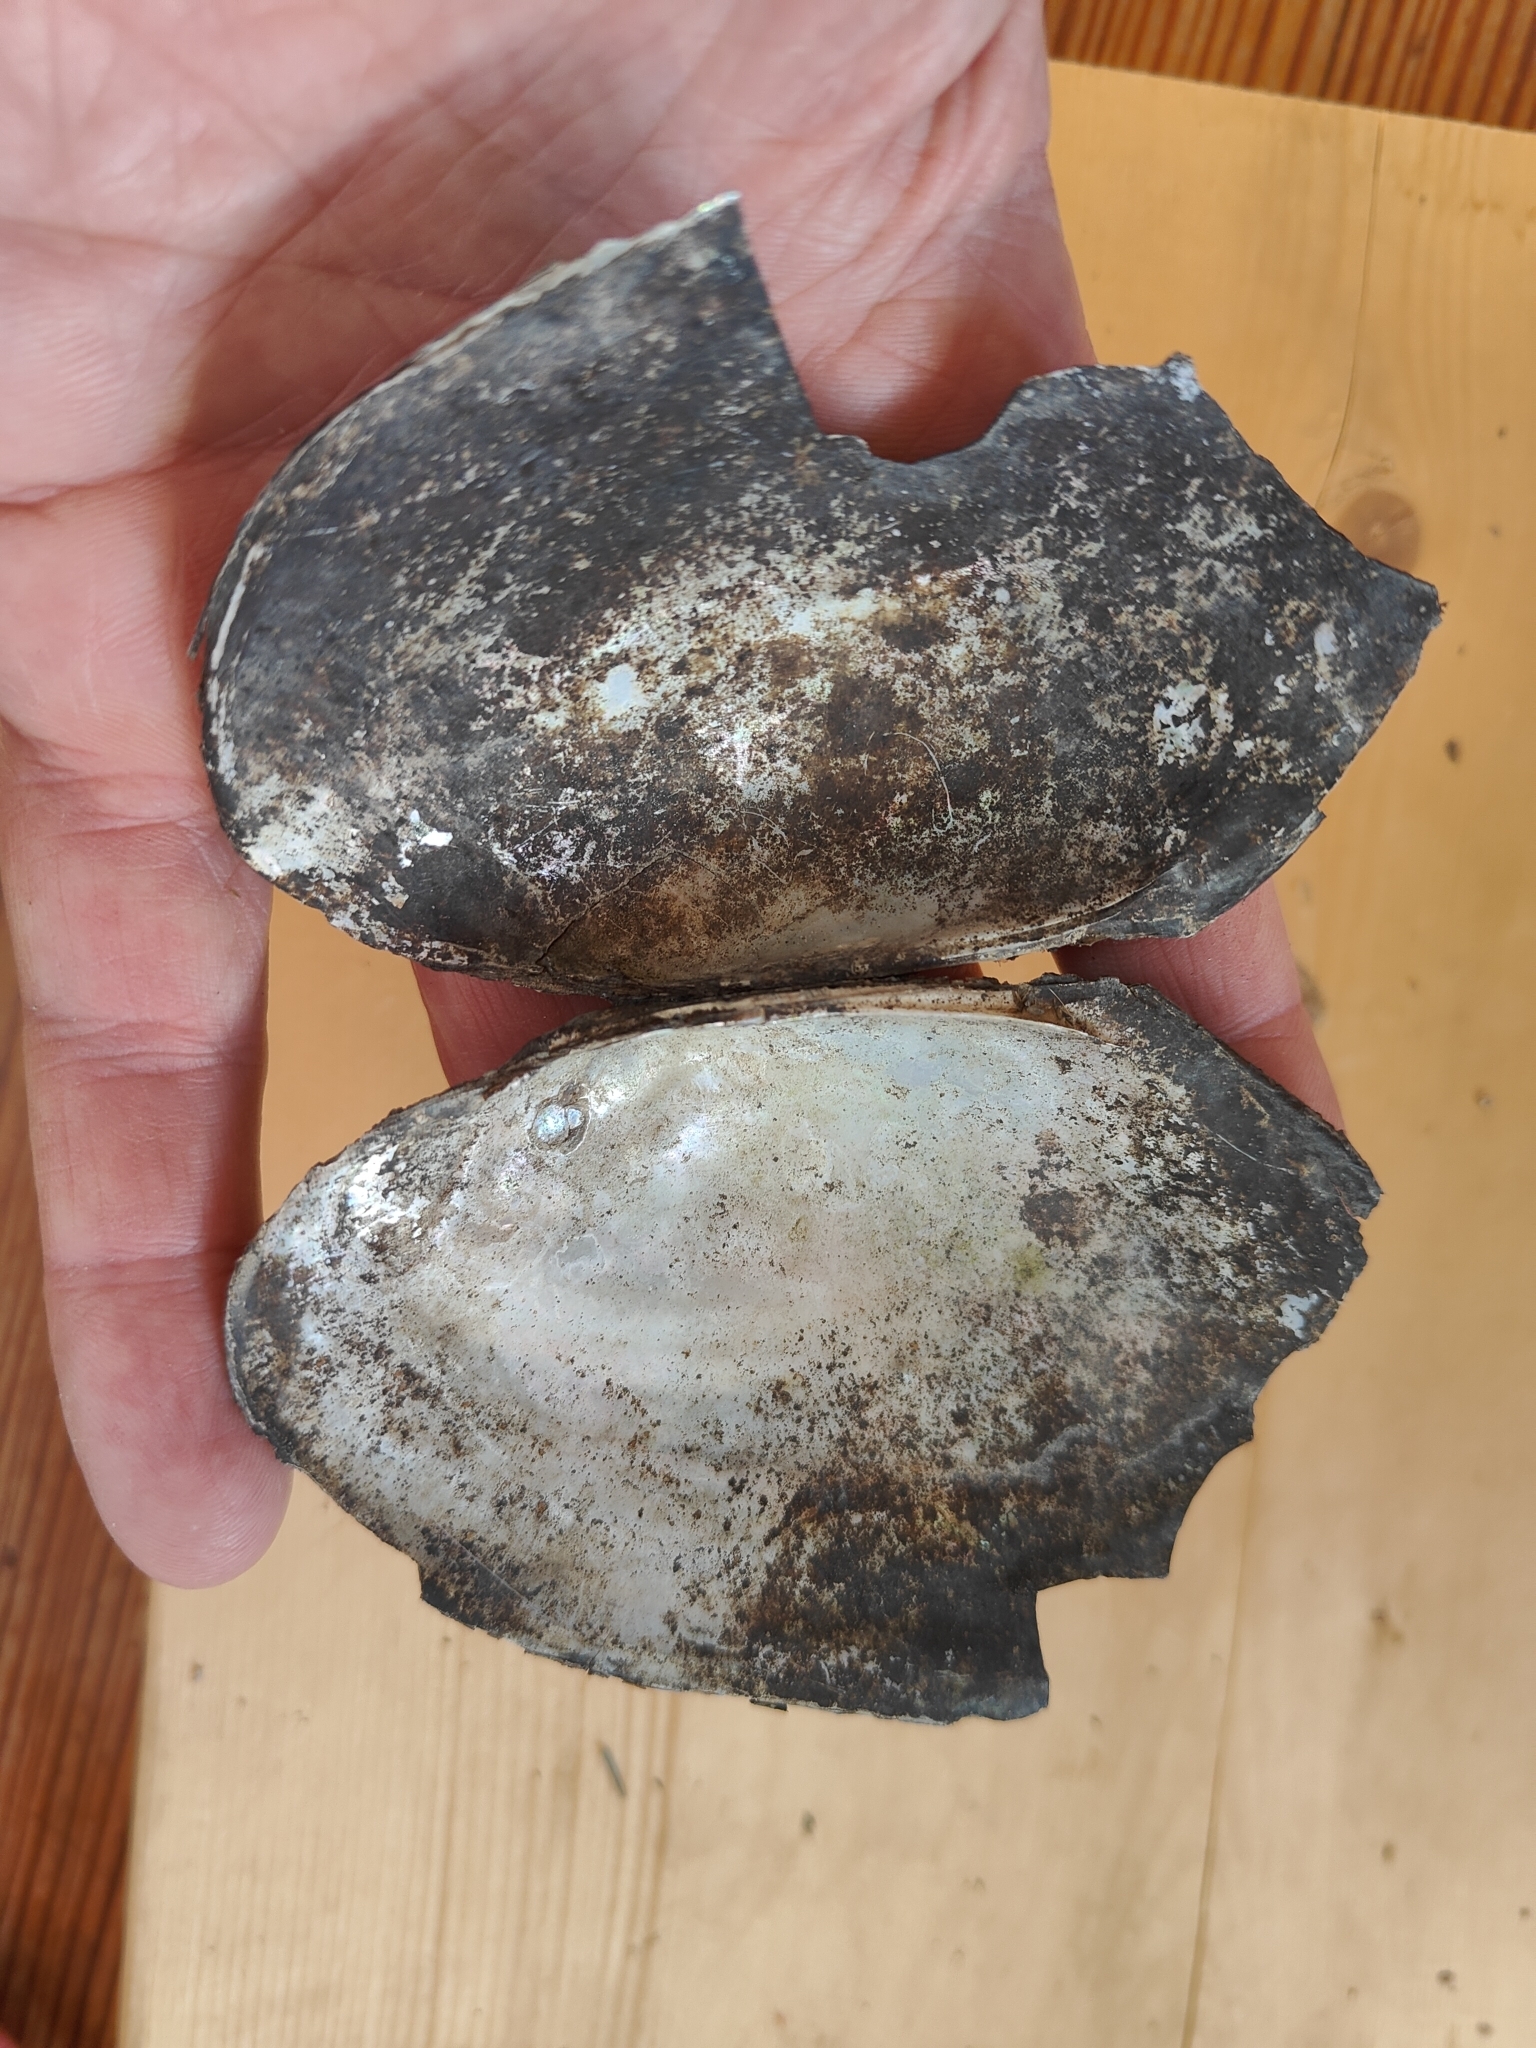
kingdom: Animalia
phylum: Mollusca
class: Bivalvia
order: Unionida
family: Unionidae
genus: Potamilus
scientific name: Potamilus fragilis
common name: Fragile papershell
